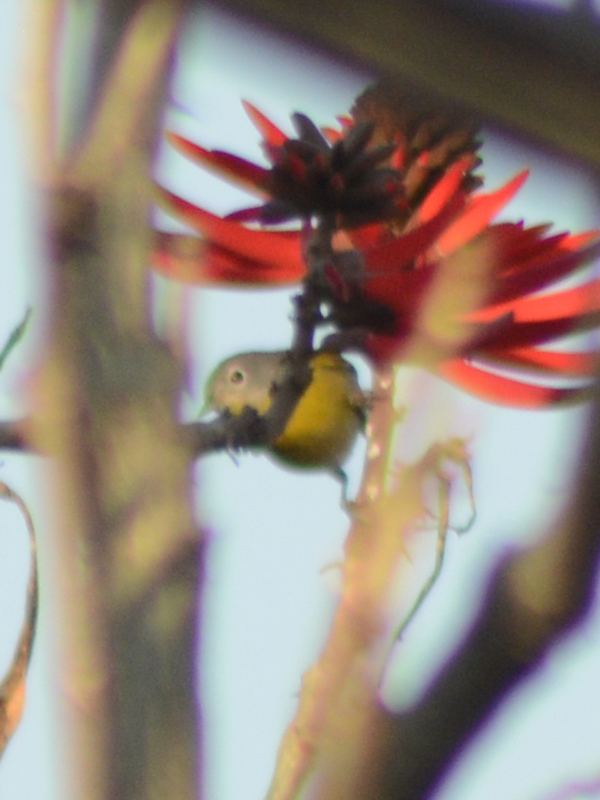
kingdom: Animalia
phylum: Chordata
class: Aves
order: Passeriformes
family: Parulidae
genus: Leiothlypis
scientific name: Leiothlypis ruficapilla
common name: Nashville warbler
